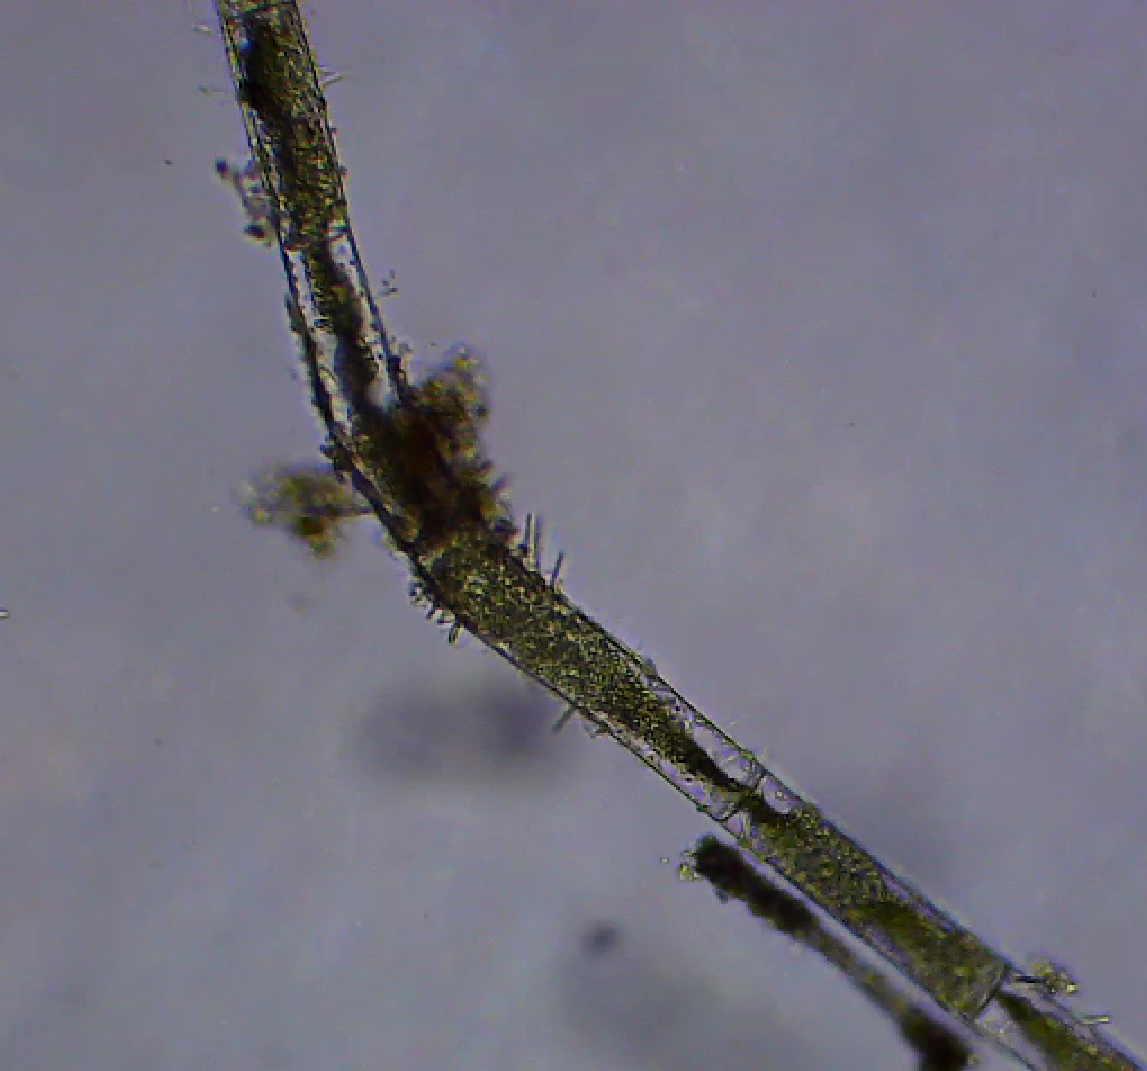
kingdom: Plantae
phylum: Charophyta
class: Zygnematophyceae
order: Zygnematales
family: Zygnemataceae
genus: Mougeotia
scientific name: Mougeotia
